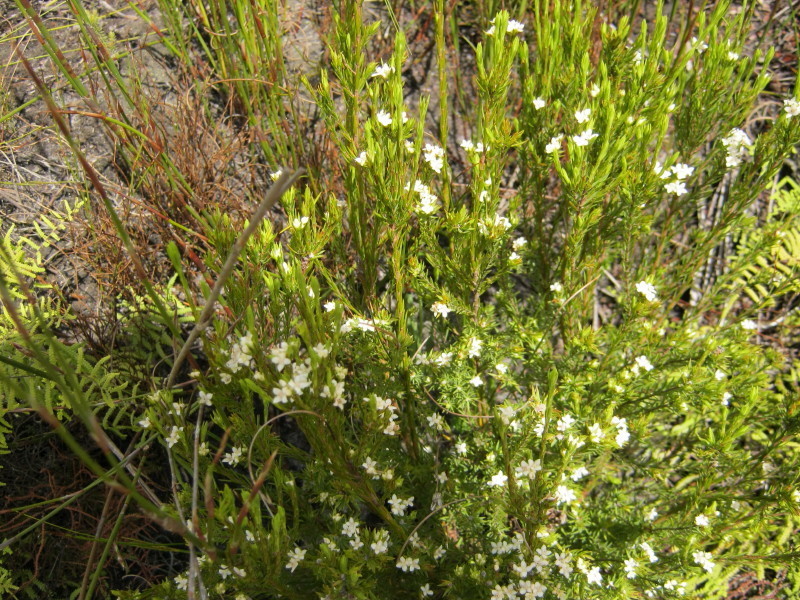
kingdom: Plantae
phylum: Tracheophyta
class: Magnoliopsida
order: Malvales
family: Thymelaeaceae
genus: Lachnaea
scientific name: Lachnaea diosmoides
